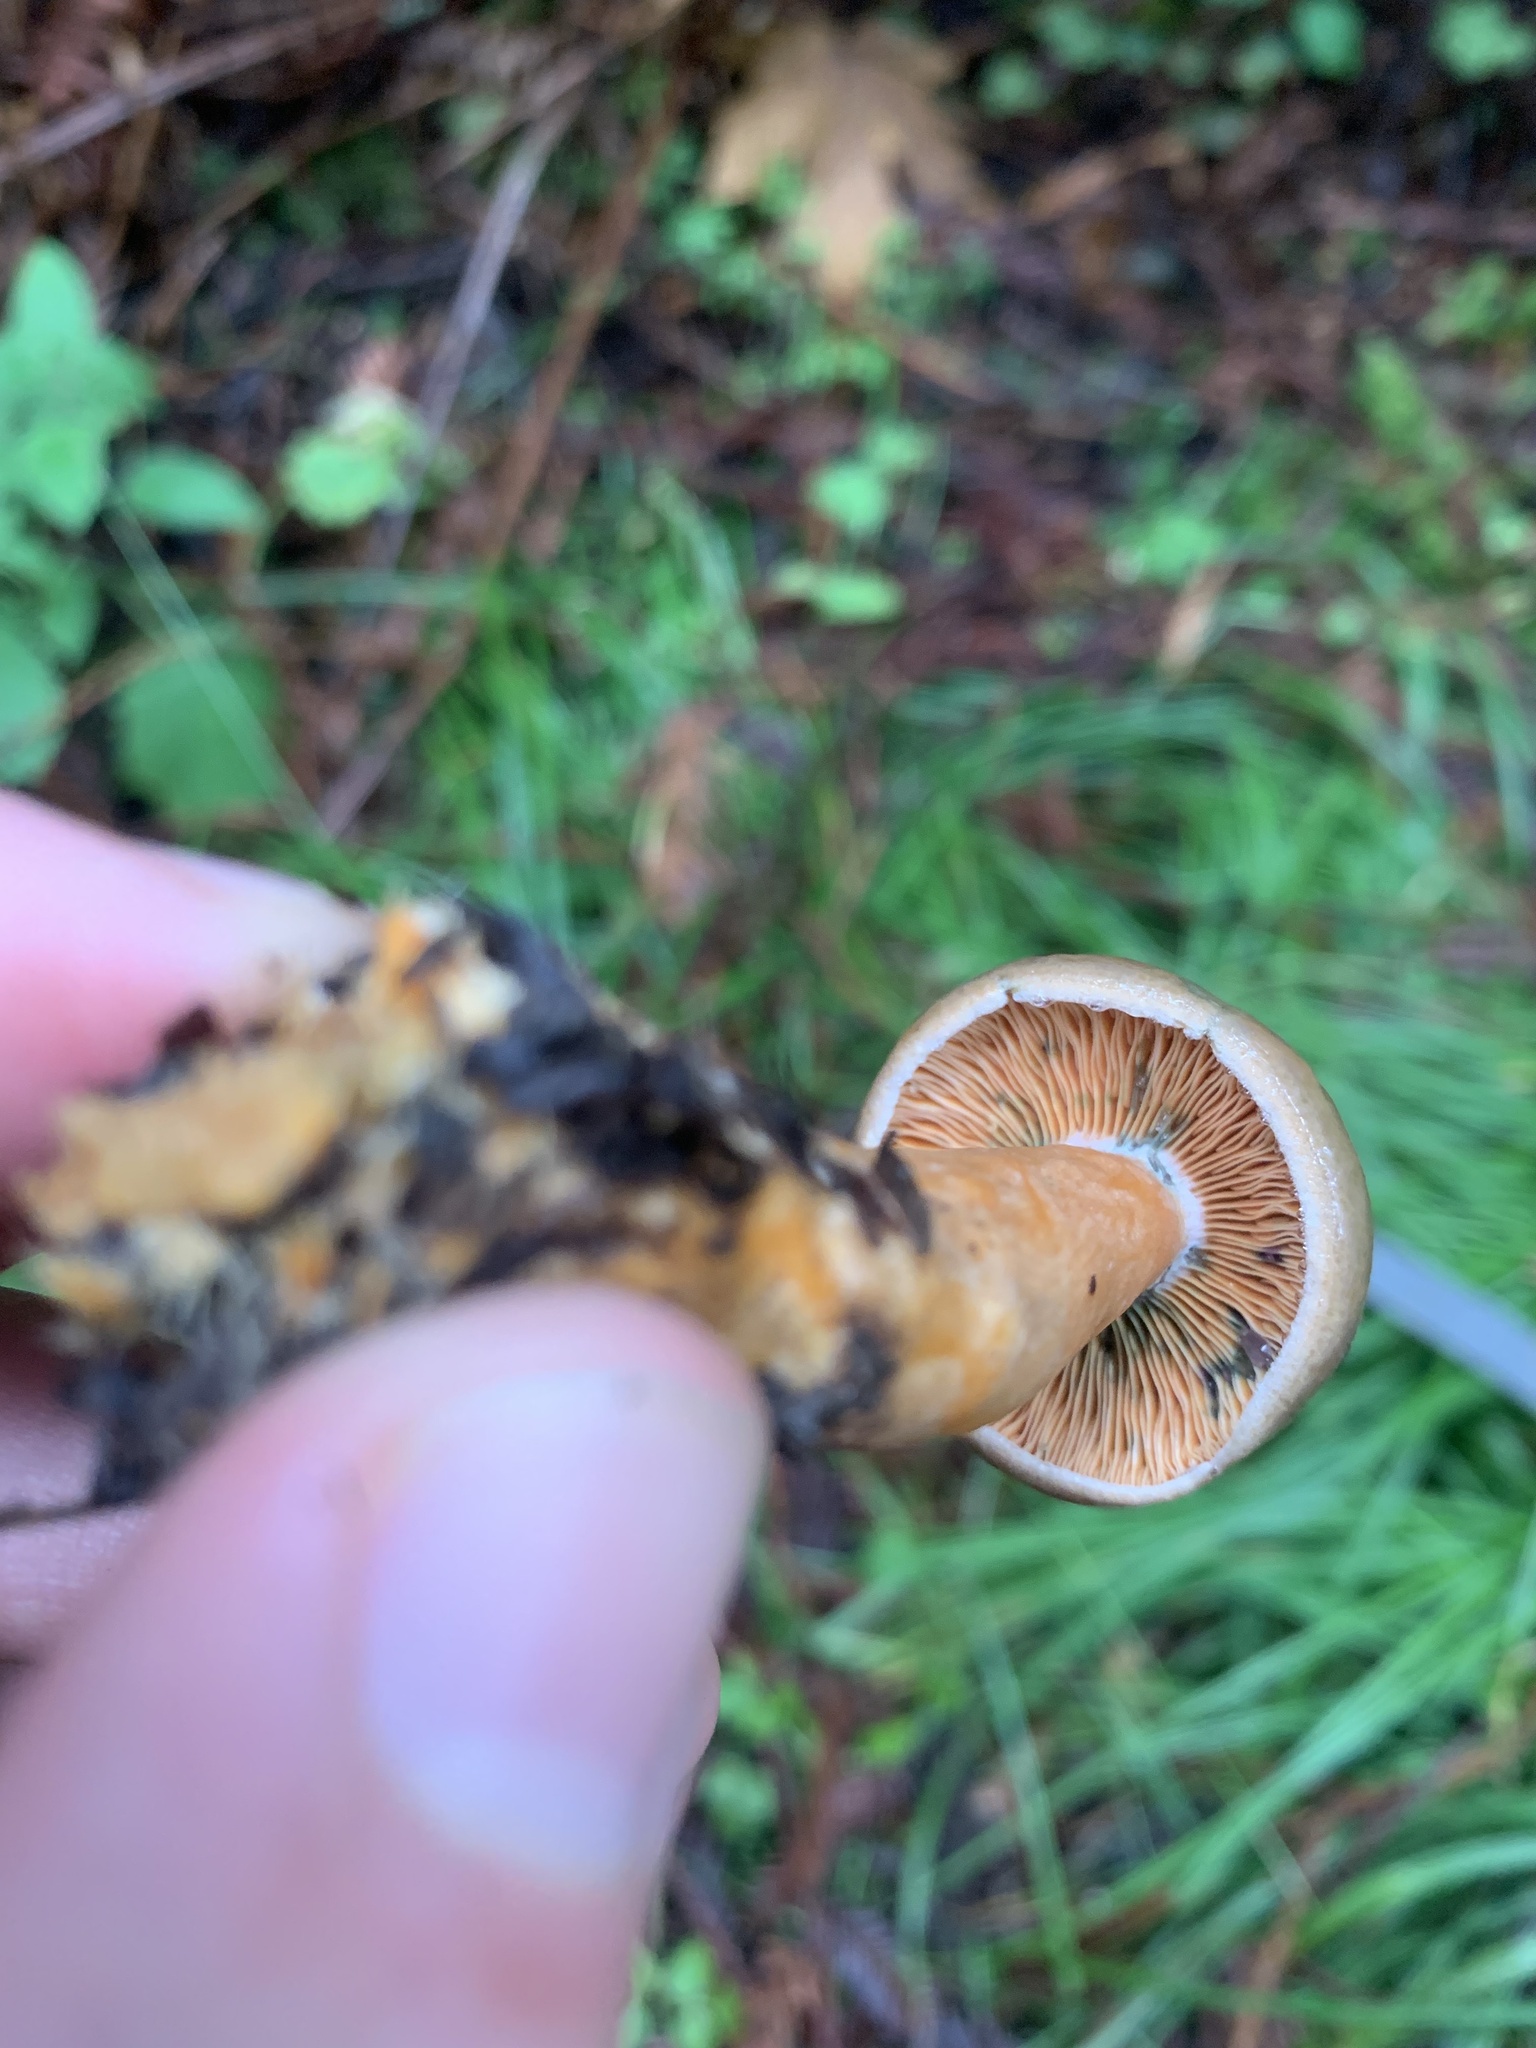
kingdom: Fungi
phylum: Basidiomycota
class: Agaricomycetes
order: Russulales
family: Russulaceae
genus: Lactarius
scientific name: Lactarius aurantiosordidus
